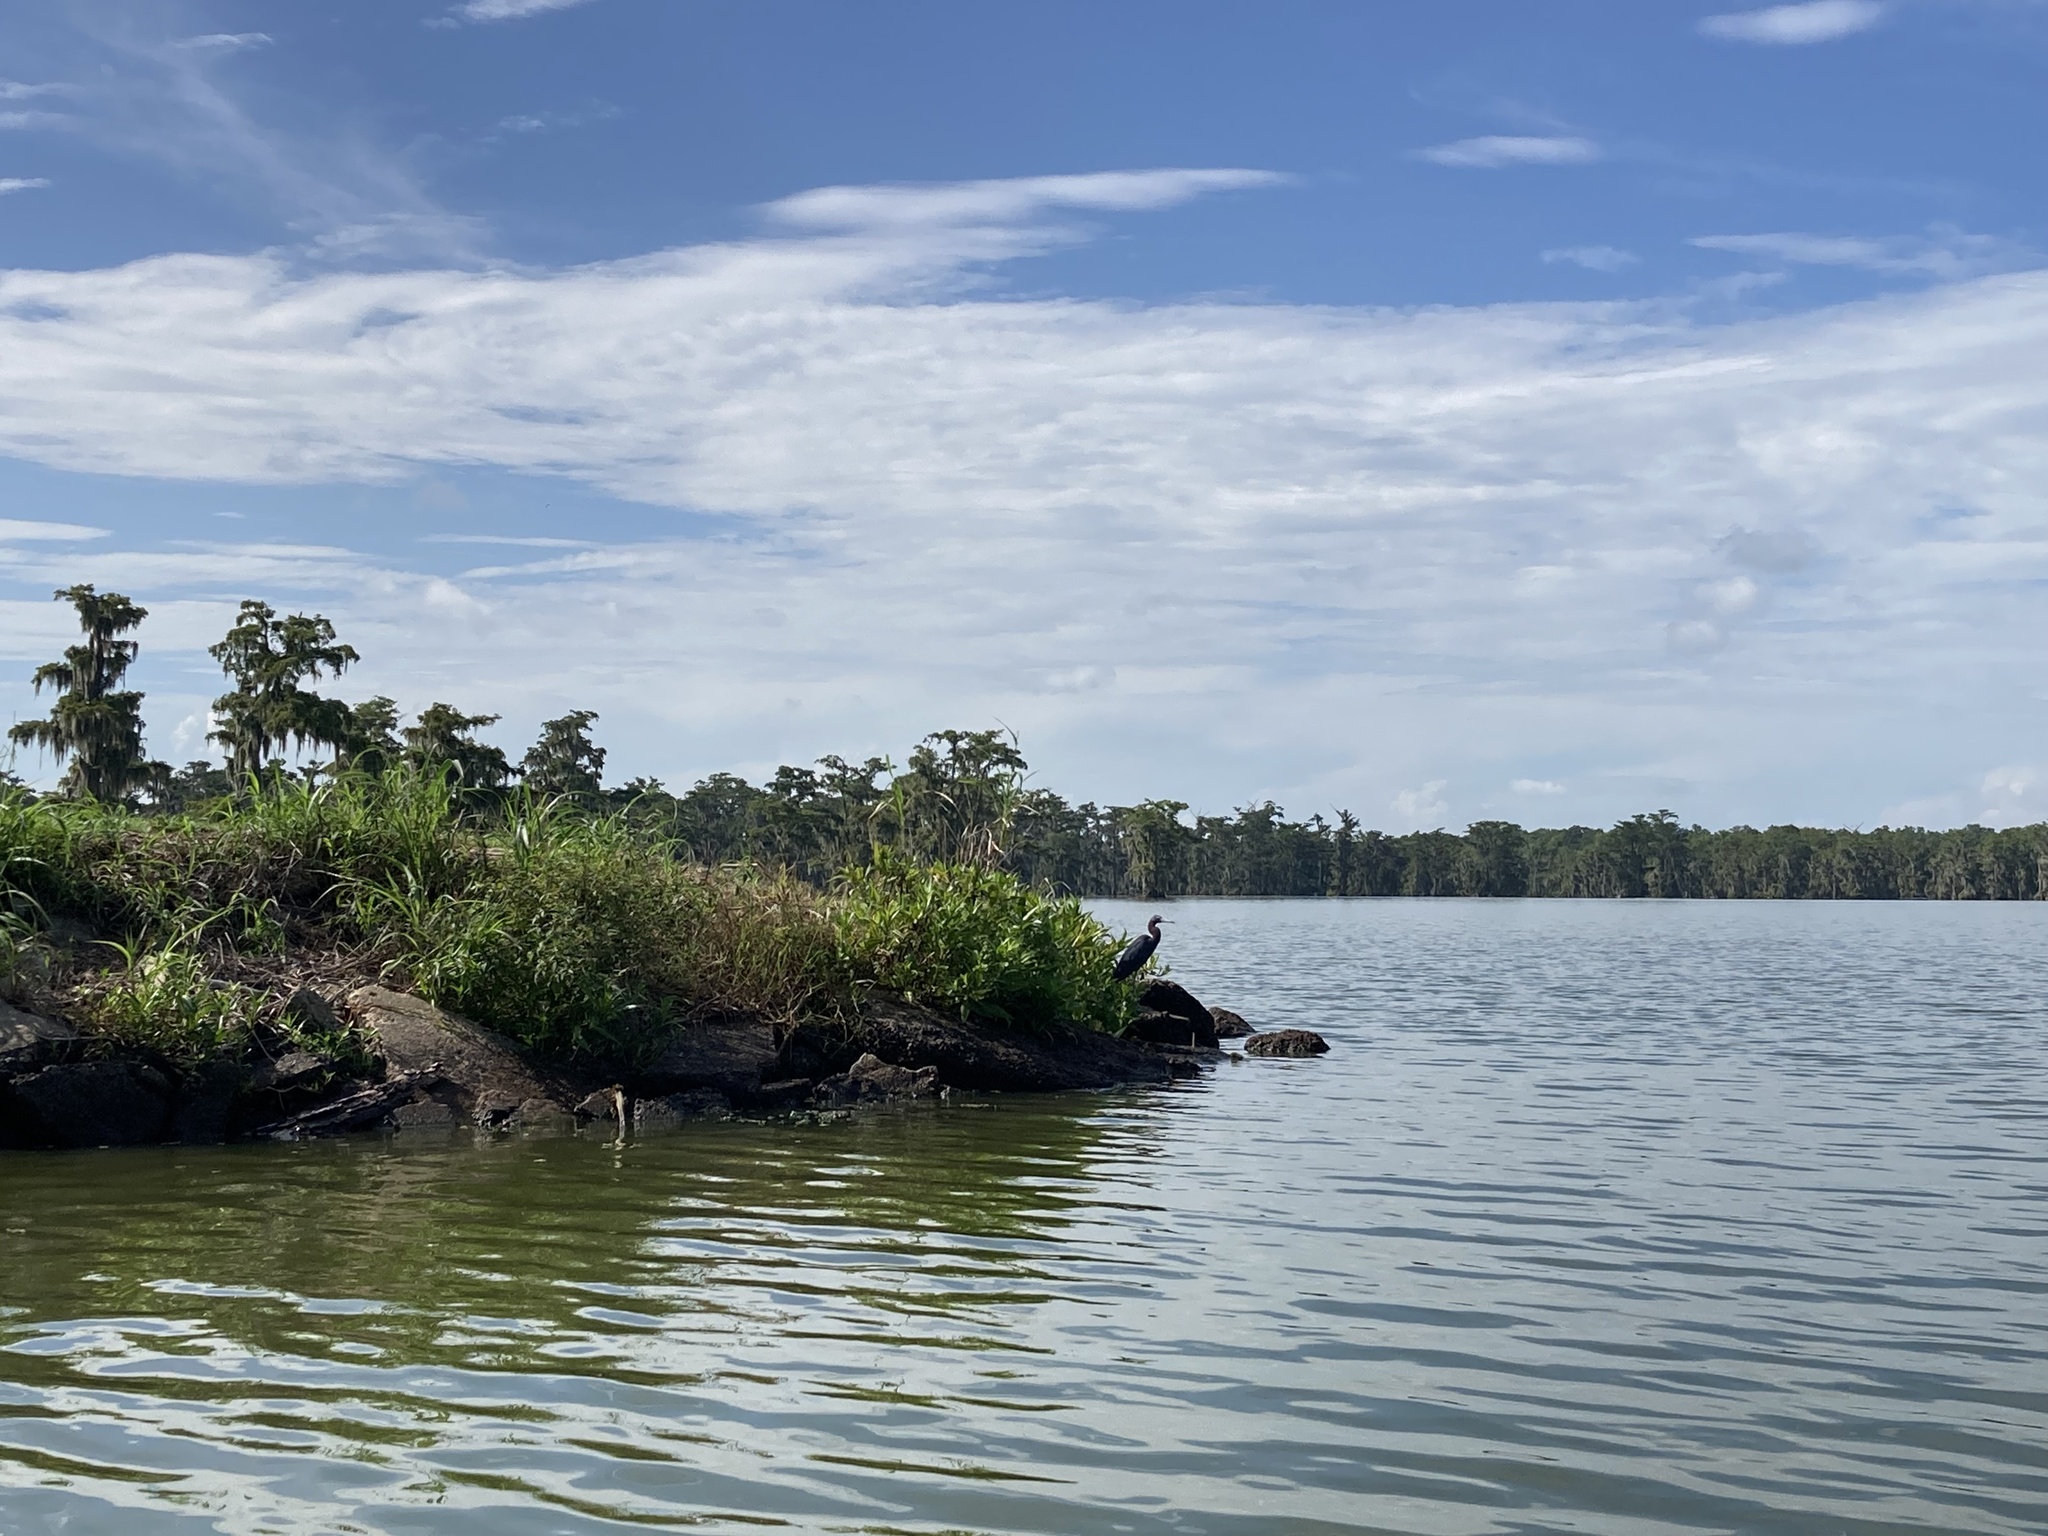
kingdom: Animalia
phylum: Chordata
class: Aves
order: Pelecaniformes
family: Ardeidae
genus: Egretta
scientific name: Egretta caerulea
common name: Little blue heron
